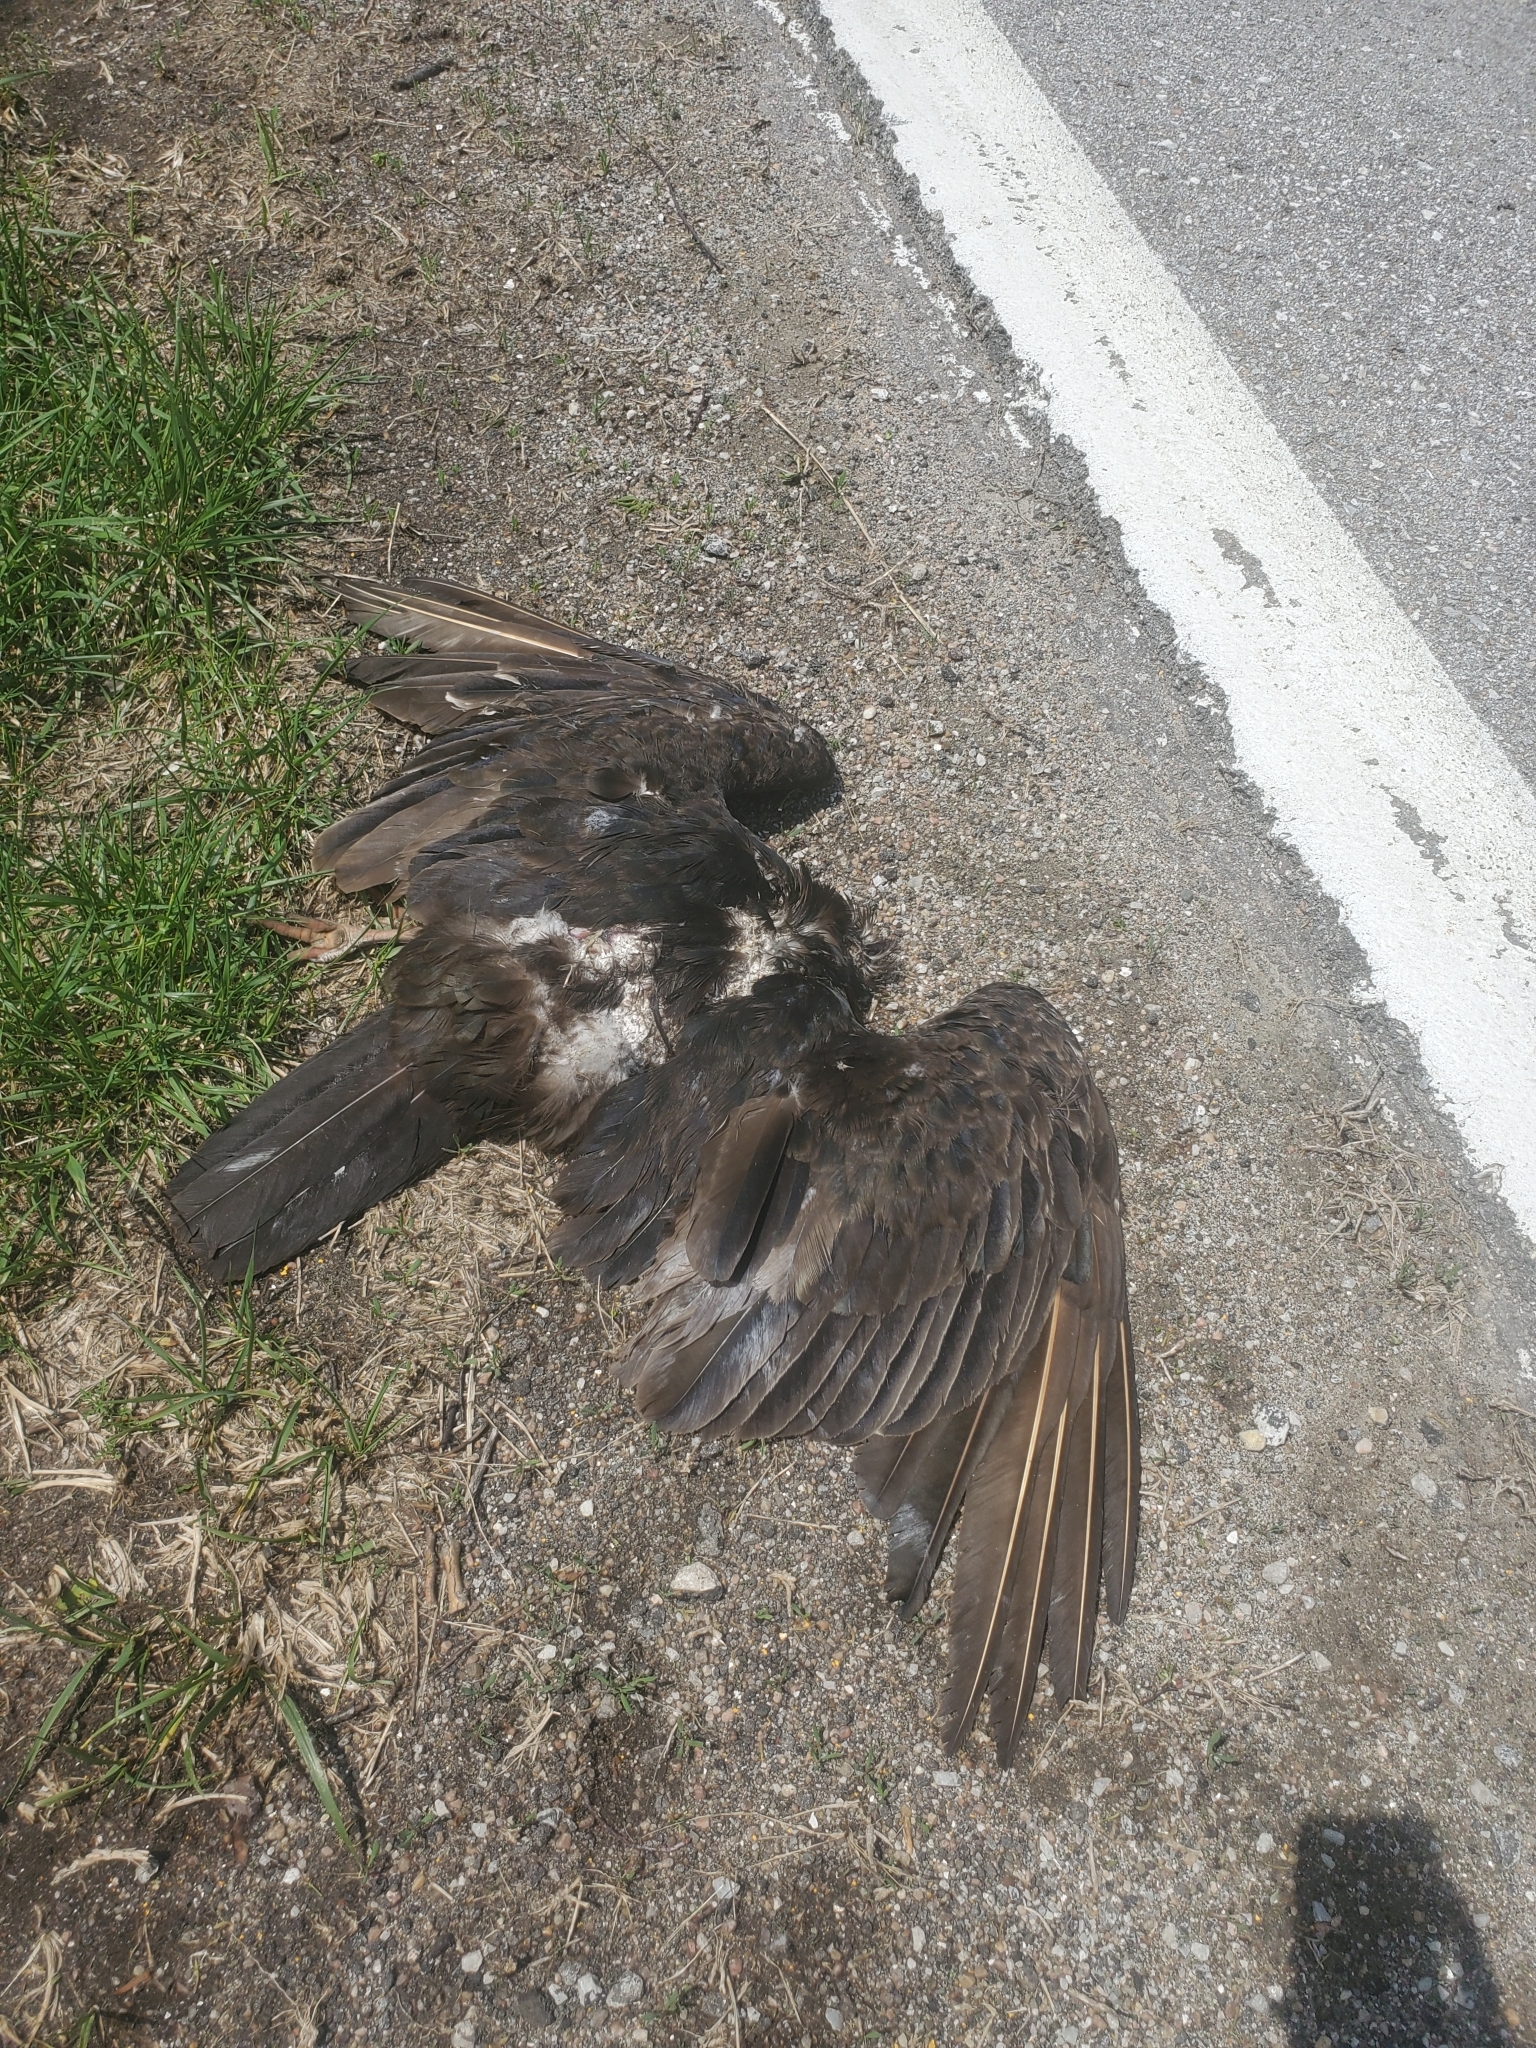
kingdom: Animalia
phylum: Chordata
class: Aves
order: Accipitriformes
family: Cathartidae
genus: Cathartes
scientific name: Cathartes aura
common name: Turkey vulture
